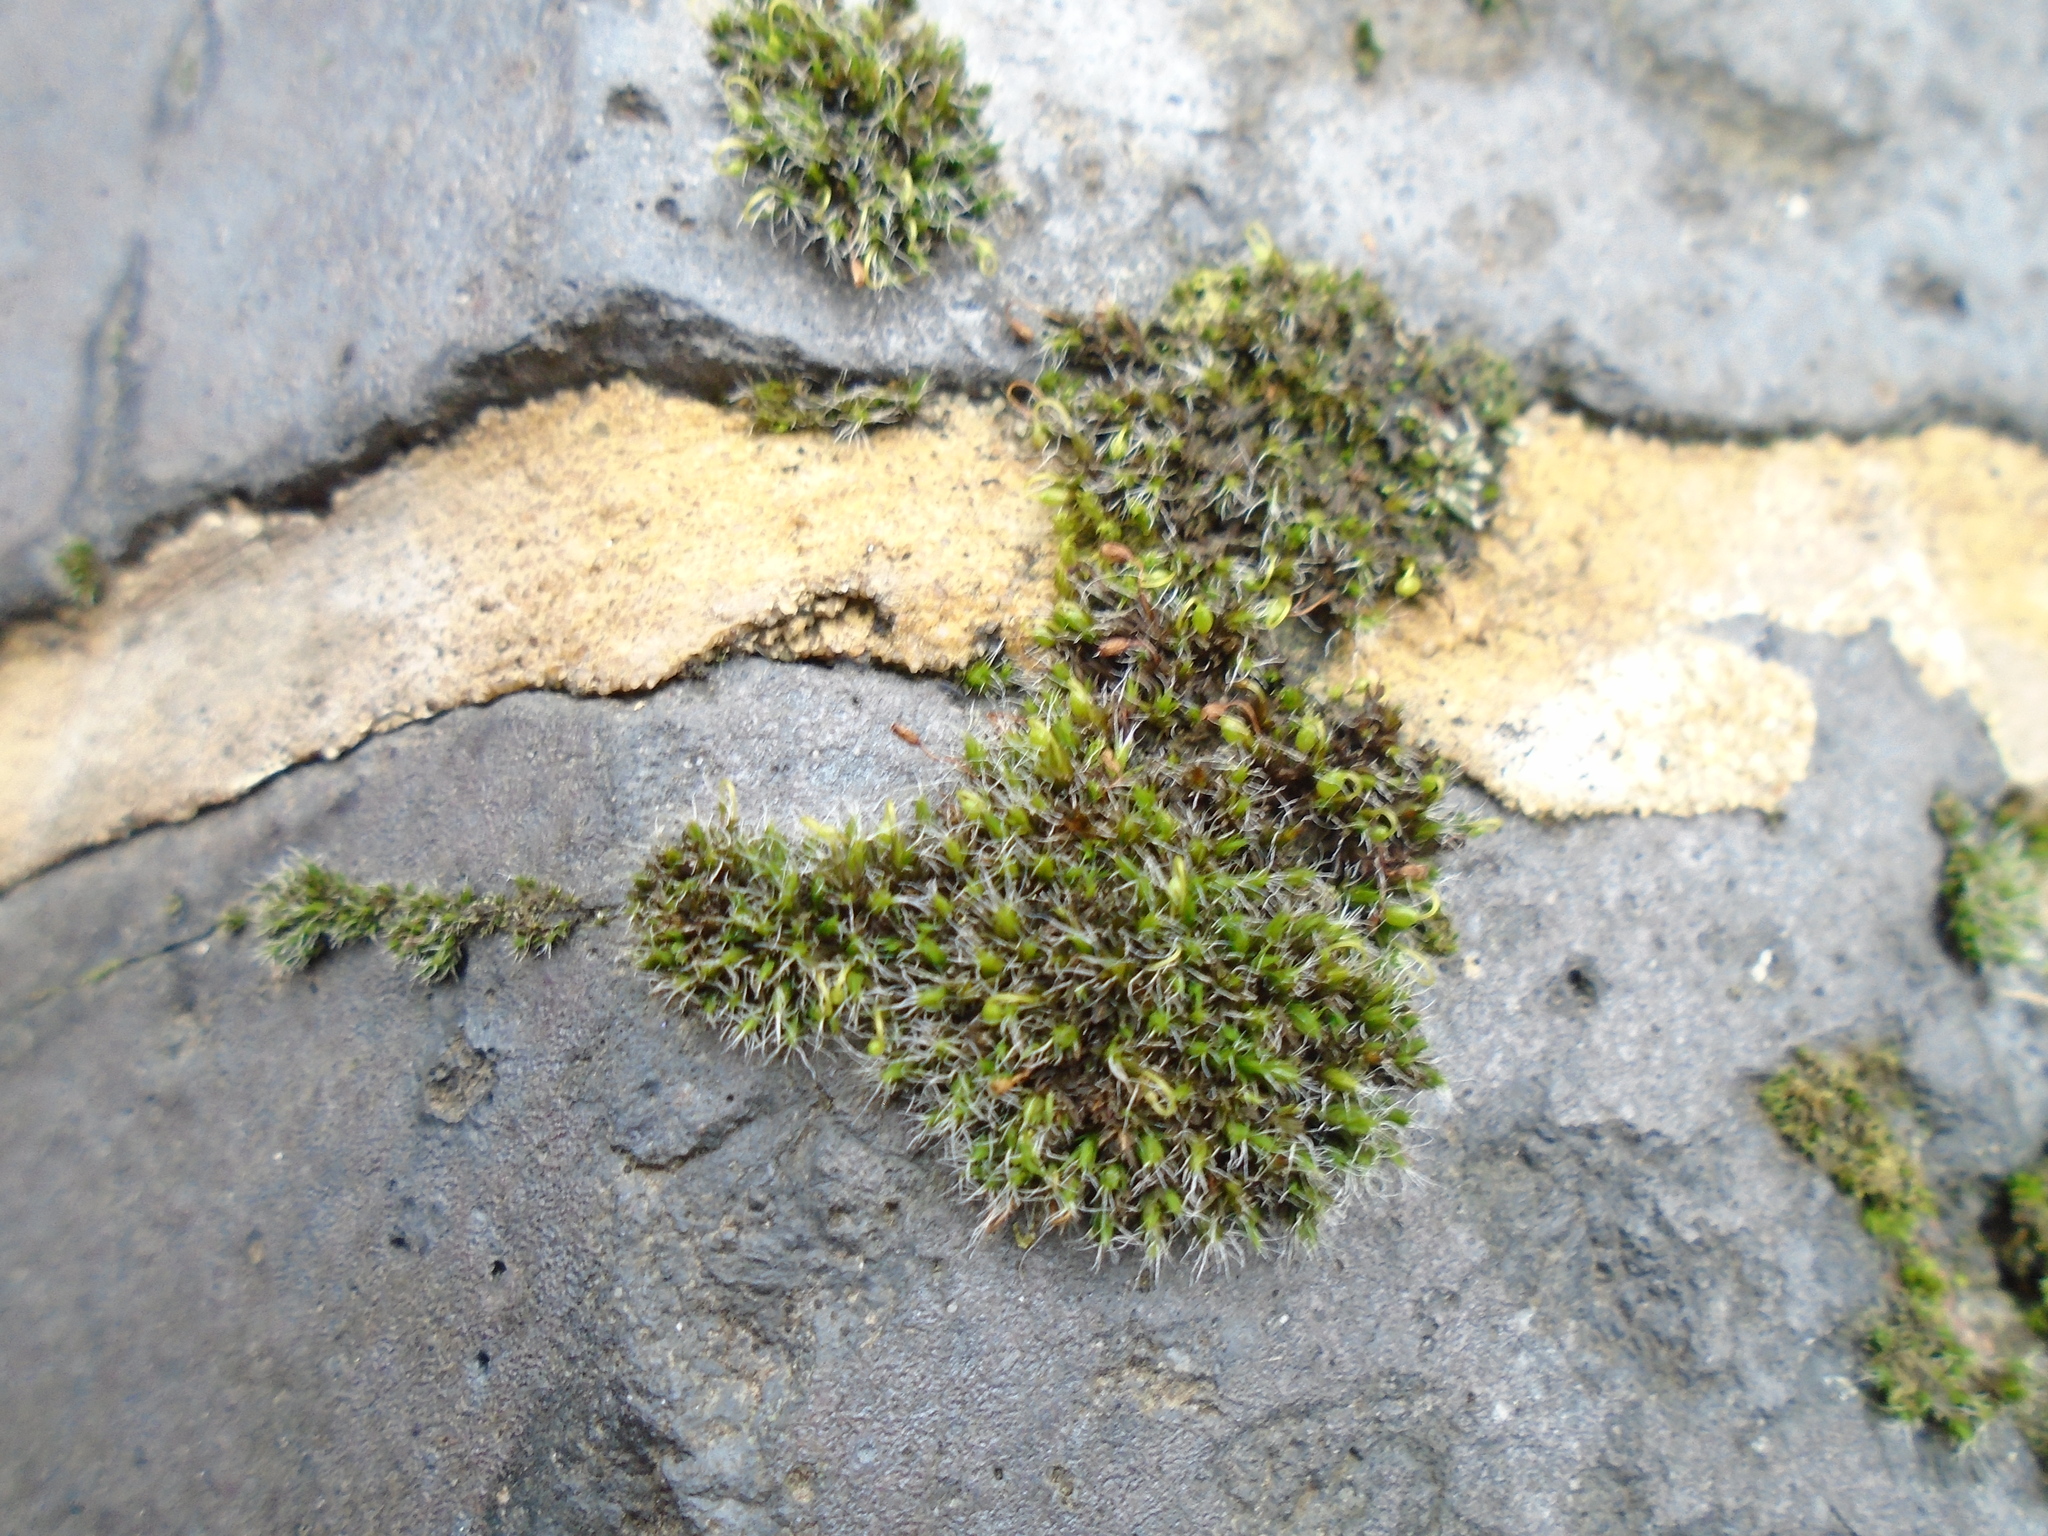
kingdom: Plantae
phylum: Bryophyta
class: Bryopsida
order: Grimmiales
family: Grimmiaceae
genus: Grimmia
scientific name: Grimmia pulvinata
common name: Grey-cushioned grimmia
